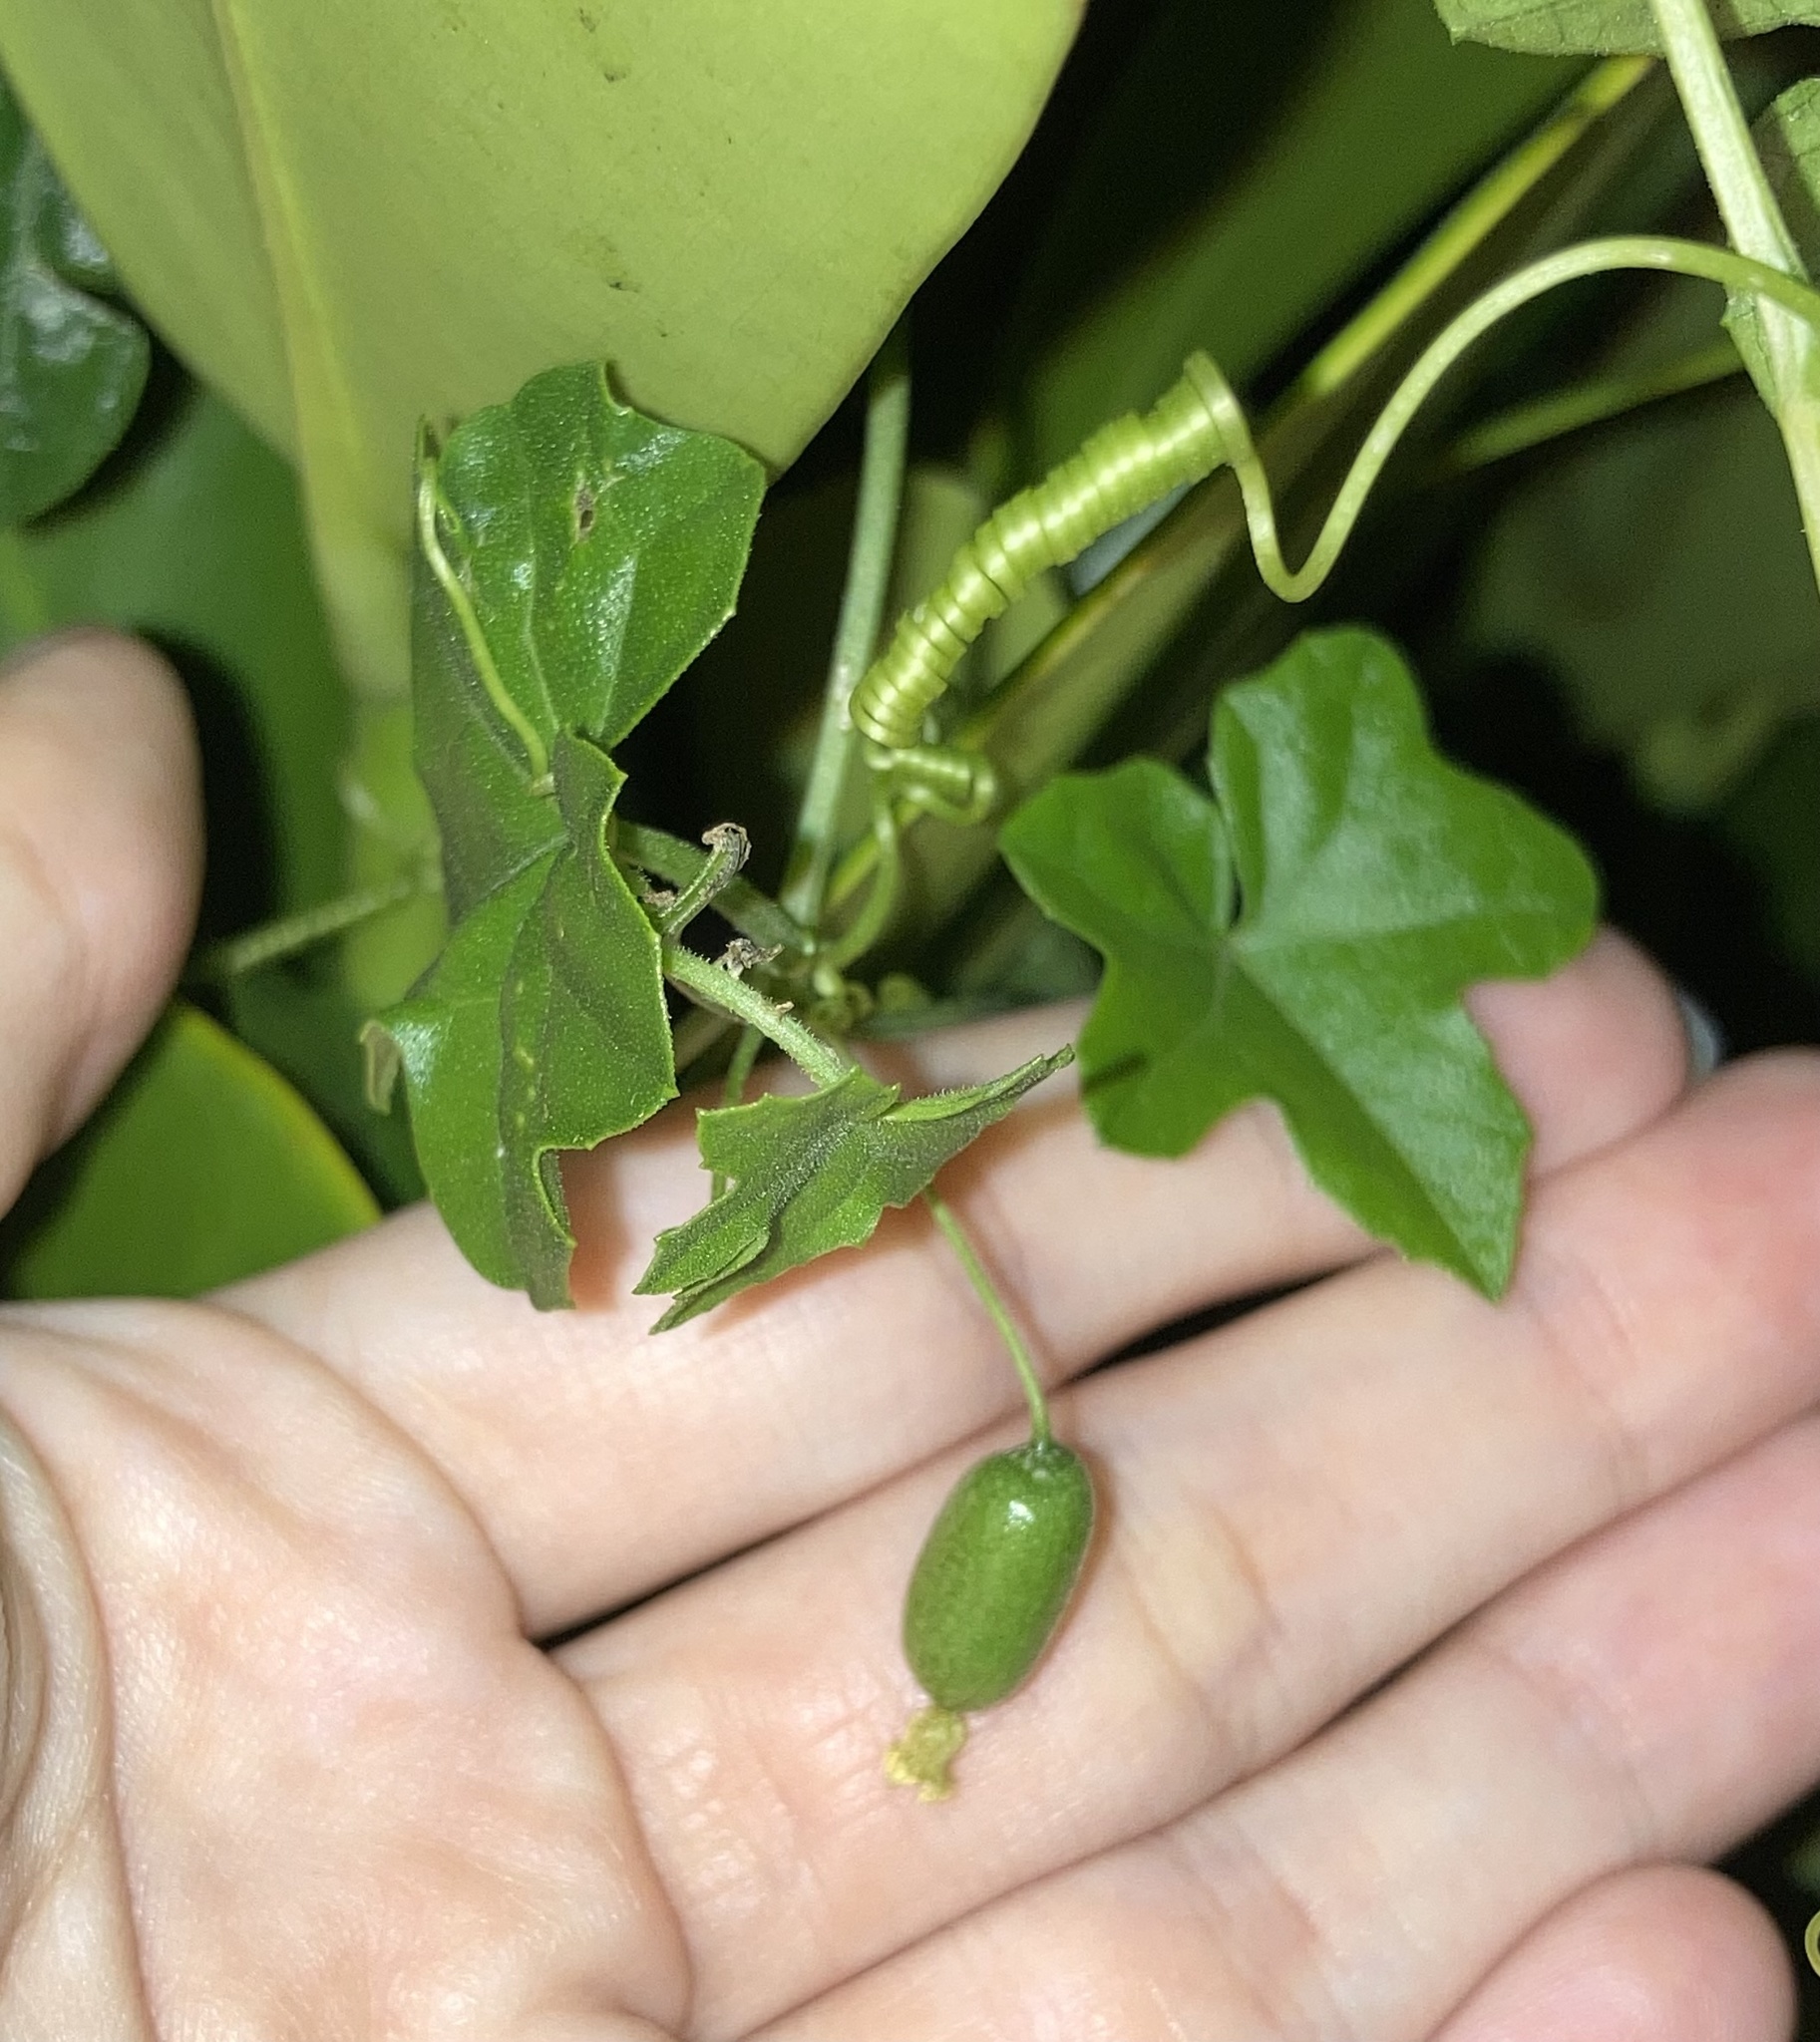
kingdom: Plantae
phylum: Tracheophyta
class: Magnoliopsida
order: Cucurbitales
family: Cucurbitaceae
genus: Melothria
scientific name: Melothria pendula
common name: Creeping-cucumber
